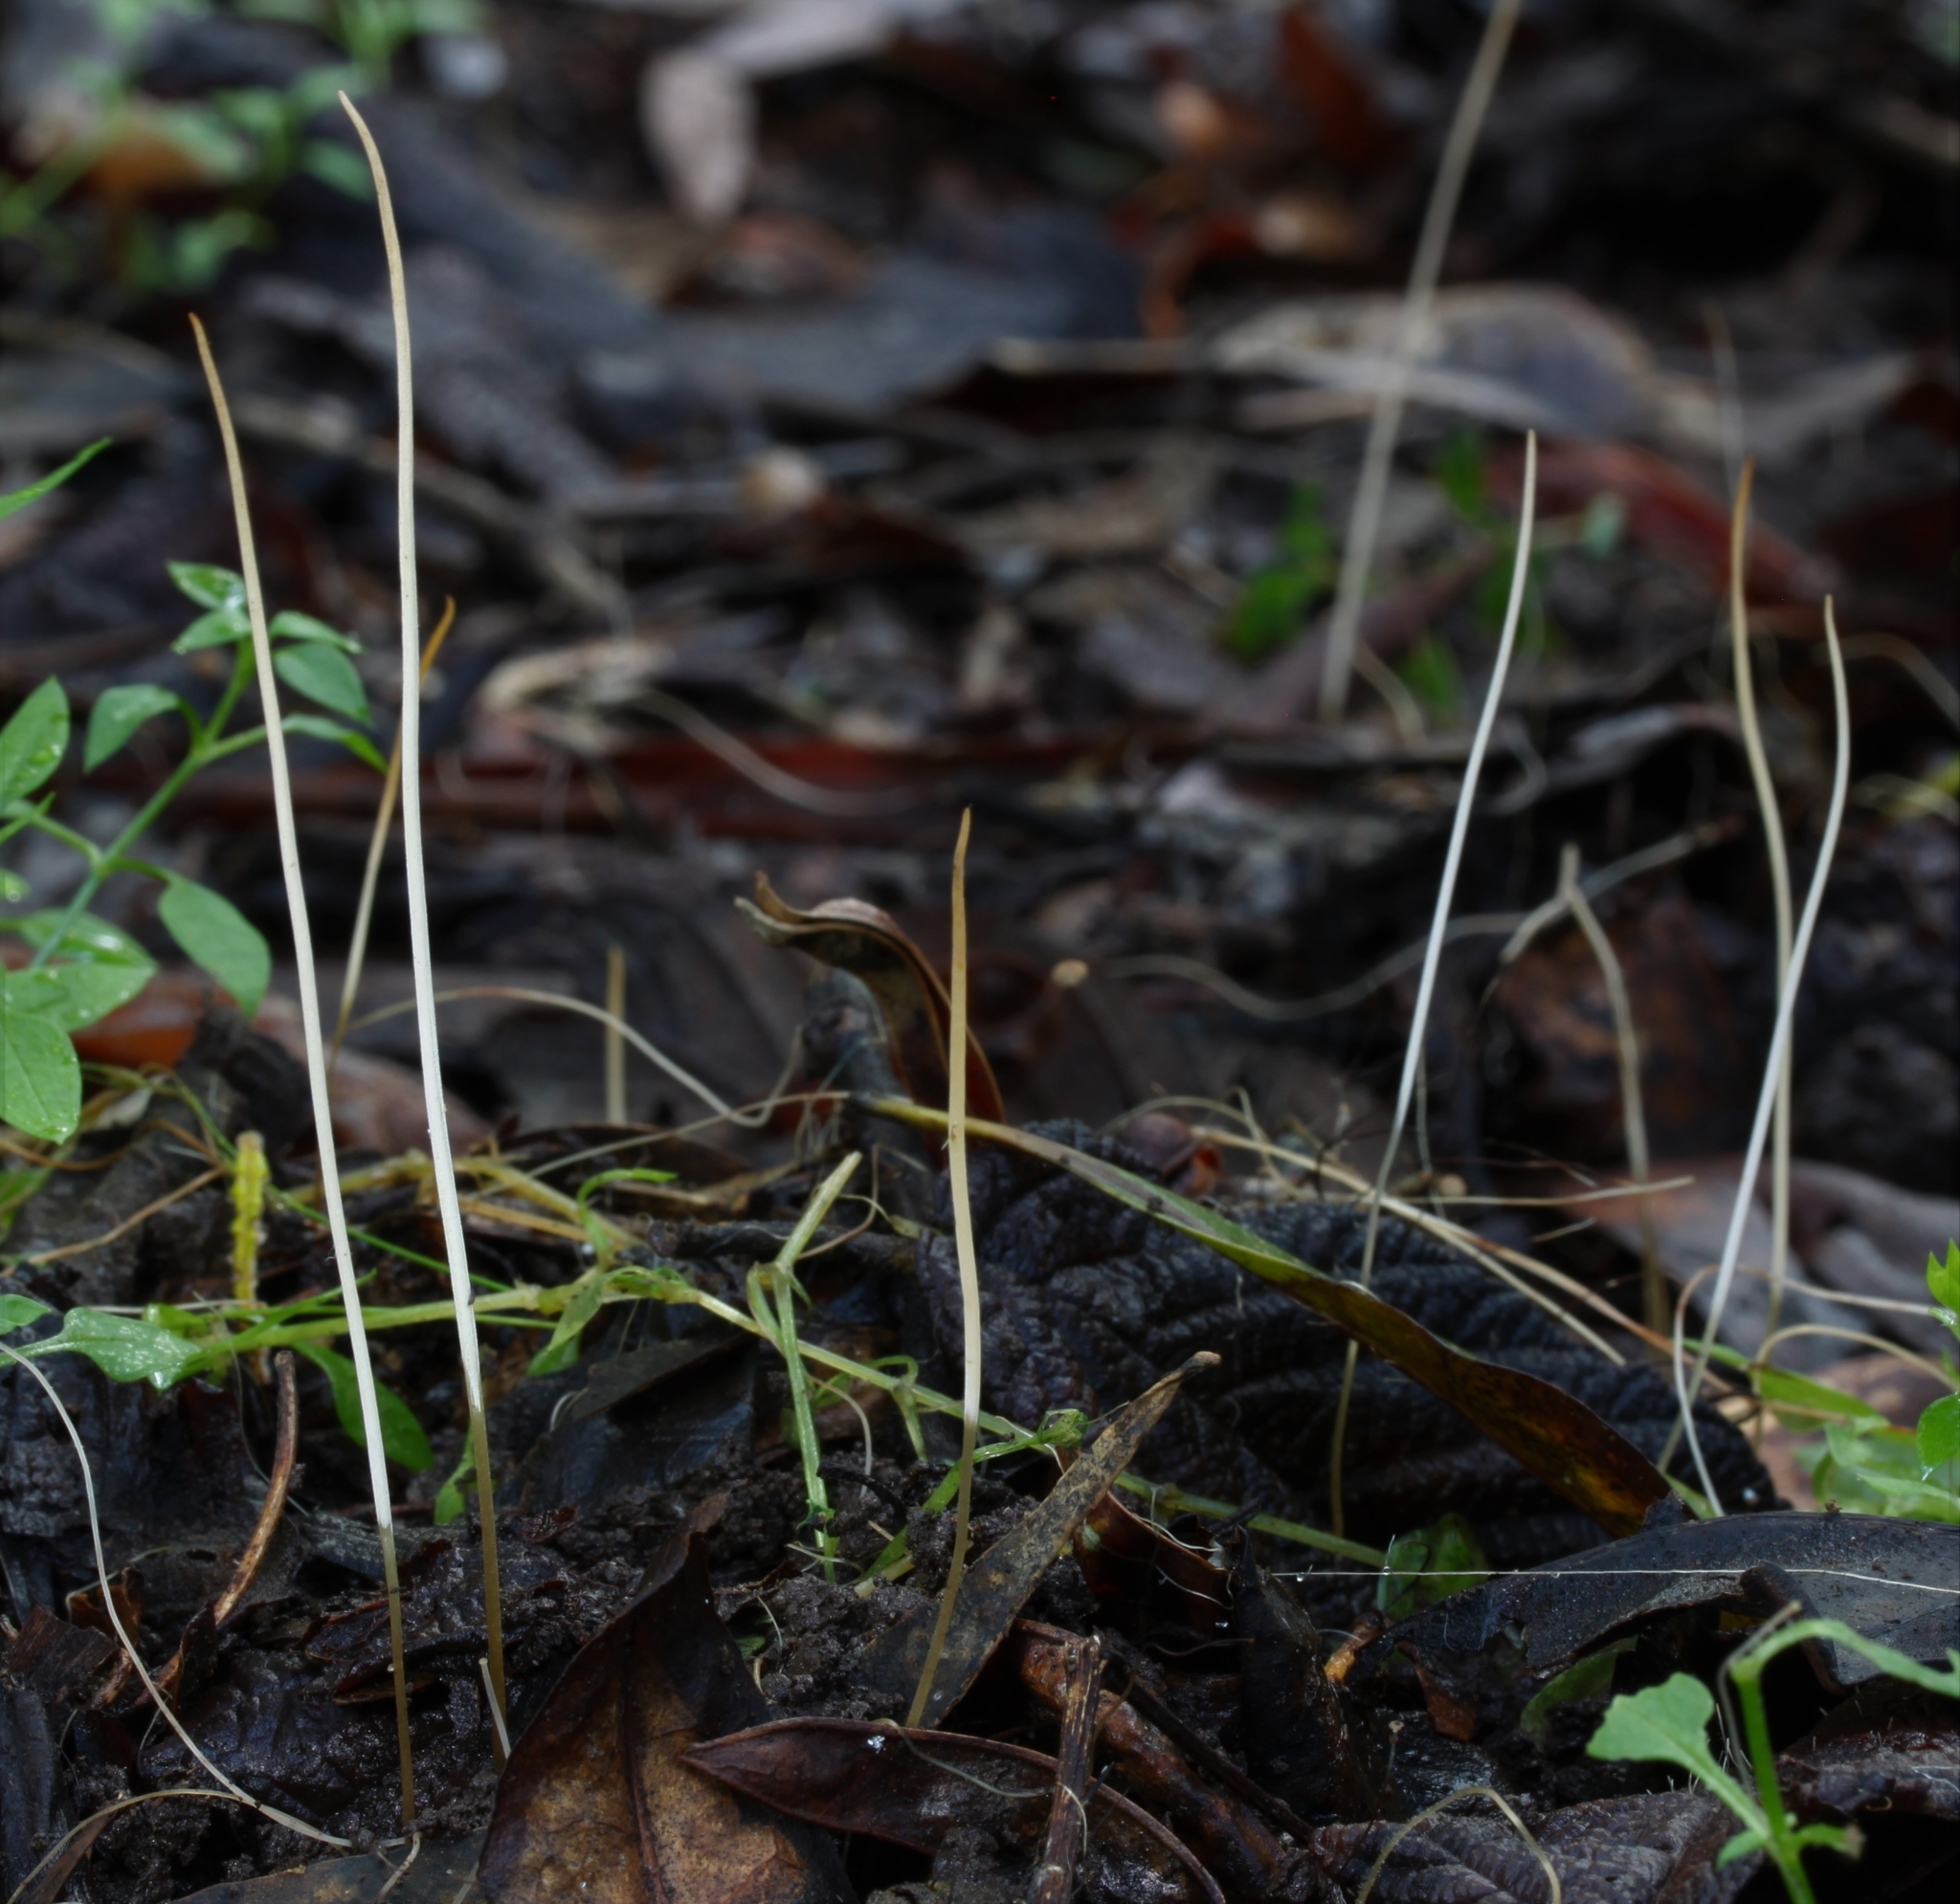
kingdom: Fungi
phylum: Basidiomycota
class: Agaricomycetes
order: Agaricales
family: Typhulaceae
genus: Typhula
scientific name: Typhula juncea
